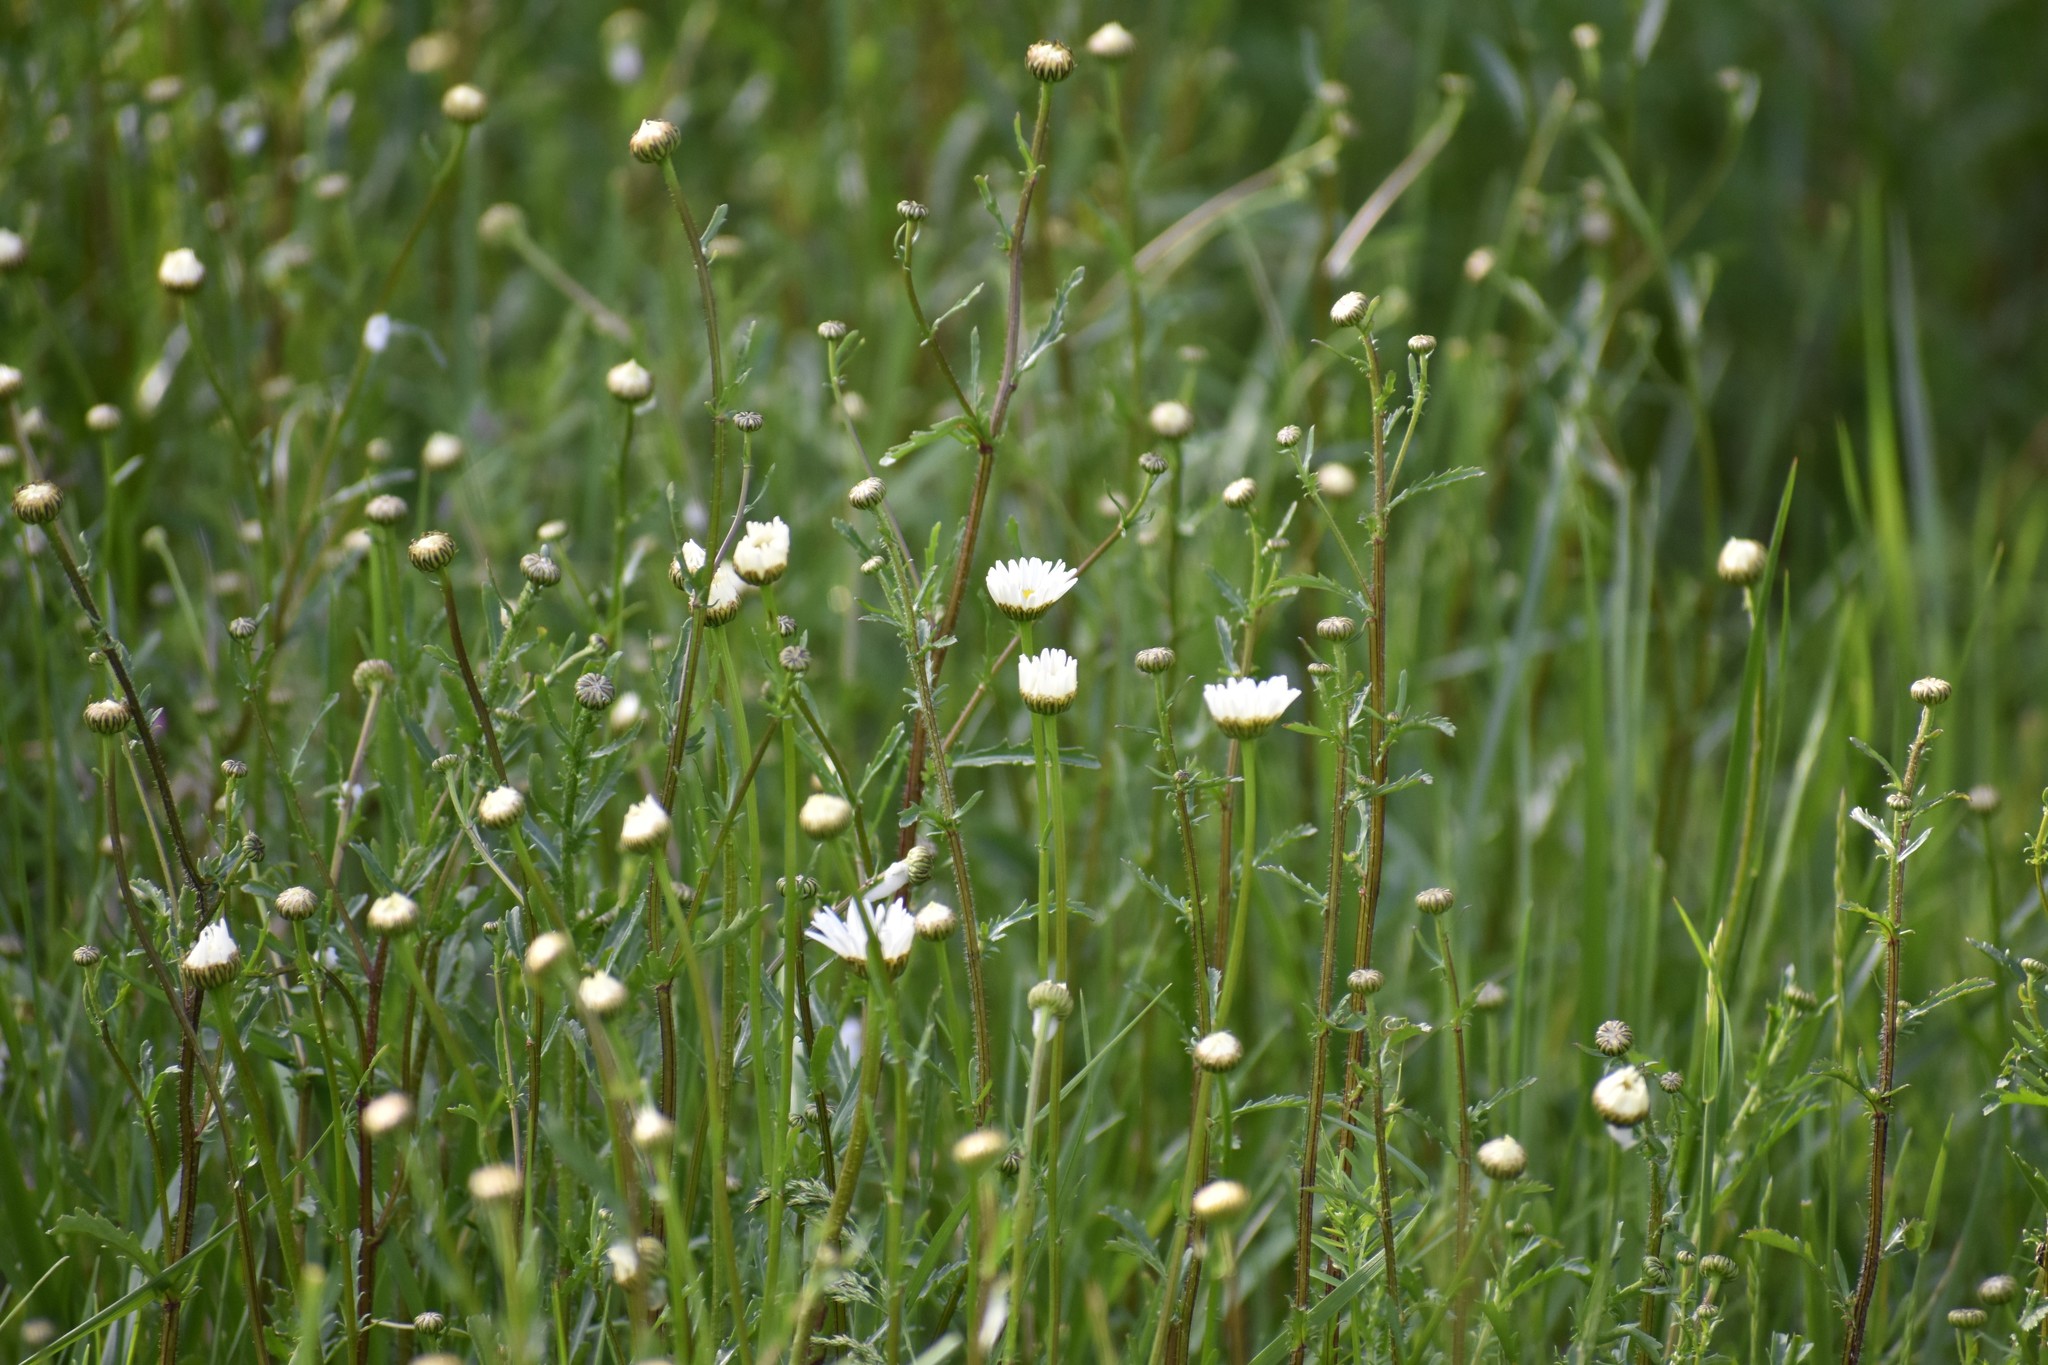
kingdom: Plantae
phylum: Tracheophyta
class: Magnoliopsida
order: Asterales
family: Asteraceae
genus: Leucanthemum
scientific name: Leucanthemum vulgare
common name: Oxeye daisy
